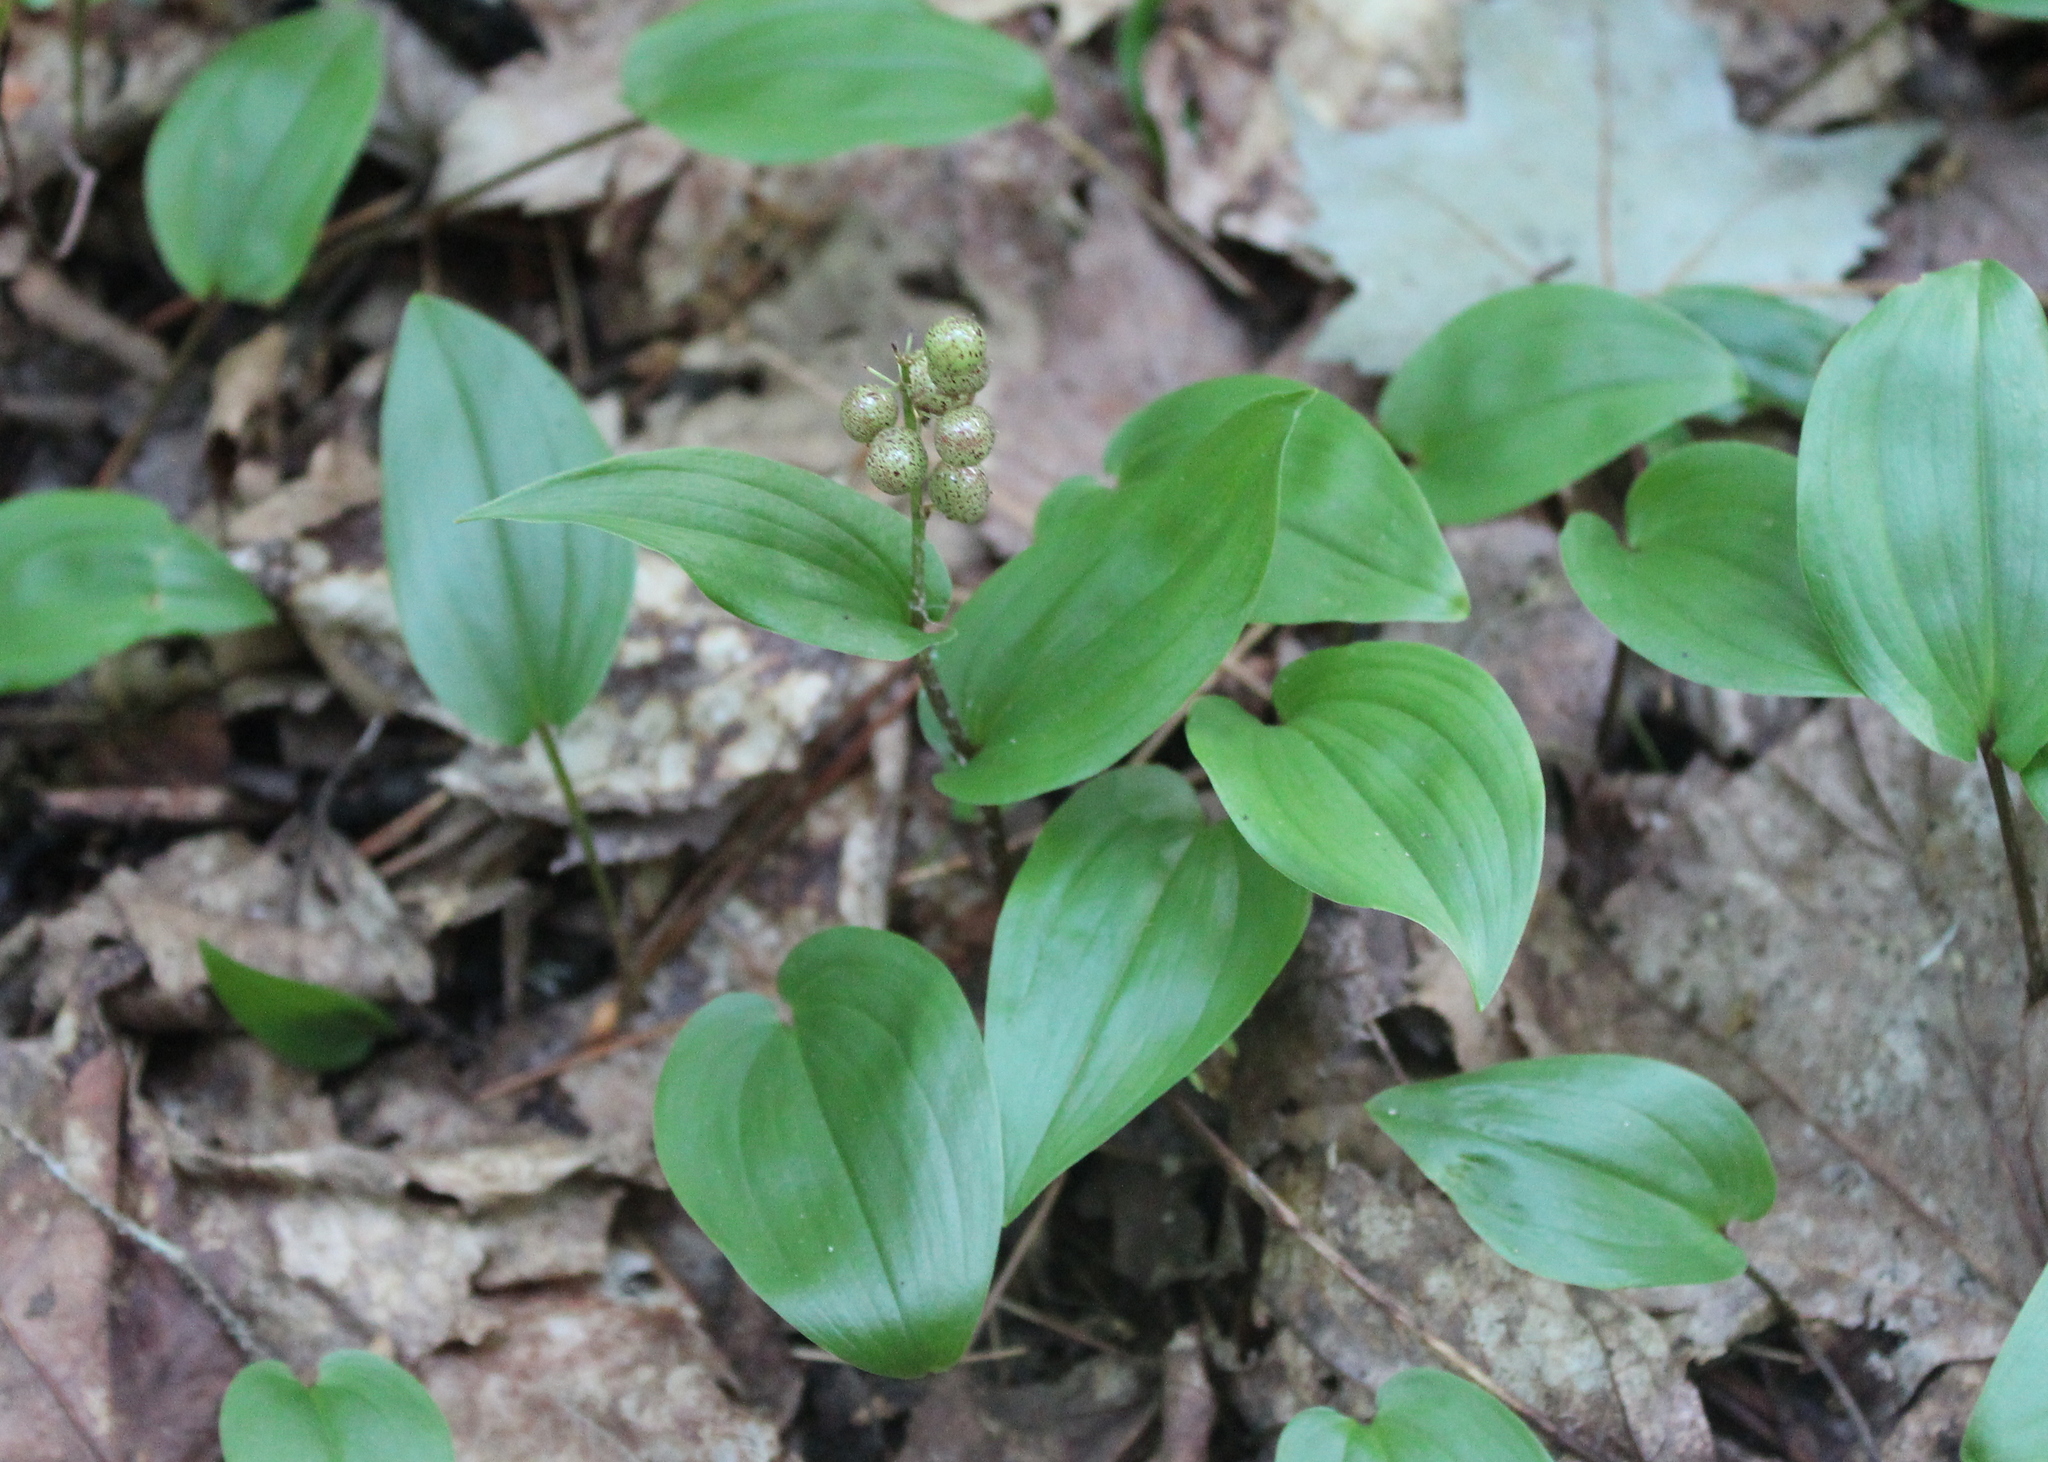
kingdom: Plantae
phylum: Tracheophyta
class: Liliopsida
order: Asparagales
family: Asparagaceae
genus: Maianthemum
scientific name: Maianthemum canadense
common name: False lily-of-the-valley
